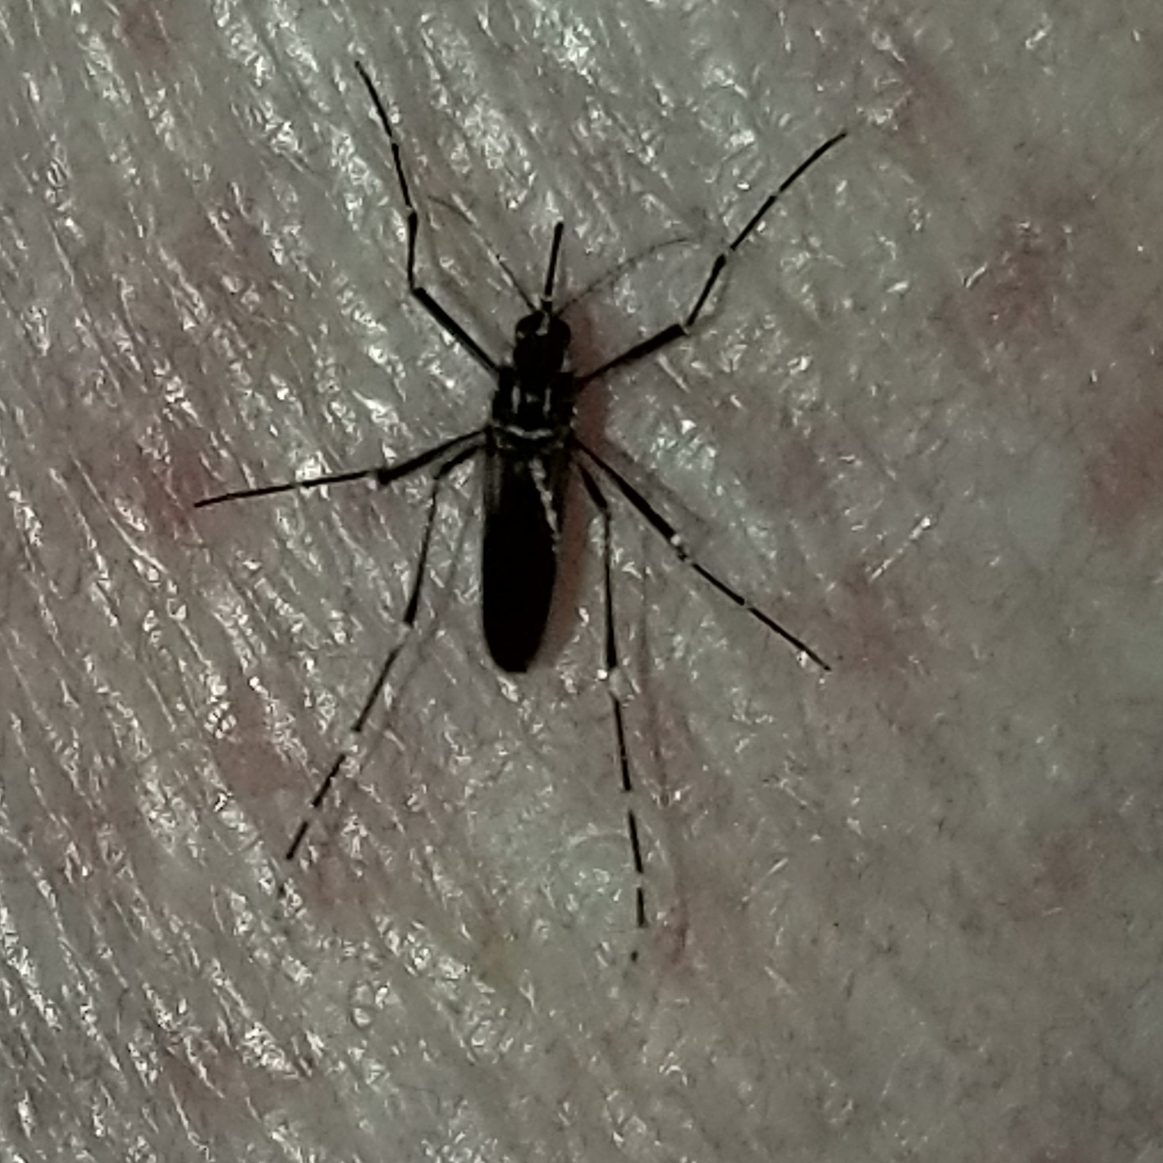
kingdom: Animalia
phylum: Arthropoda
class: Insecta
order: Diptera
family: Culicidae
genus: Aedes
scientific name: Aedes aegypti
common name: Yellow fever mosquito
